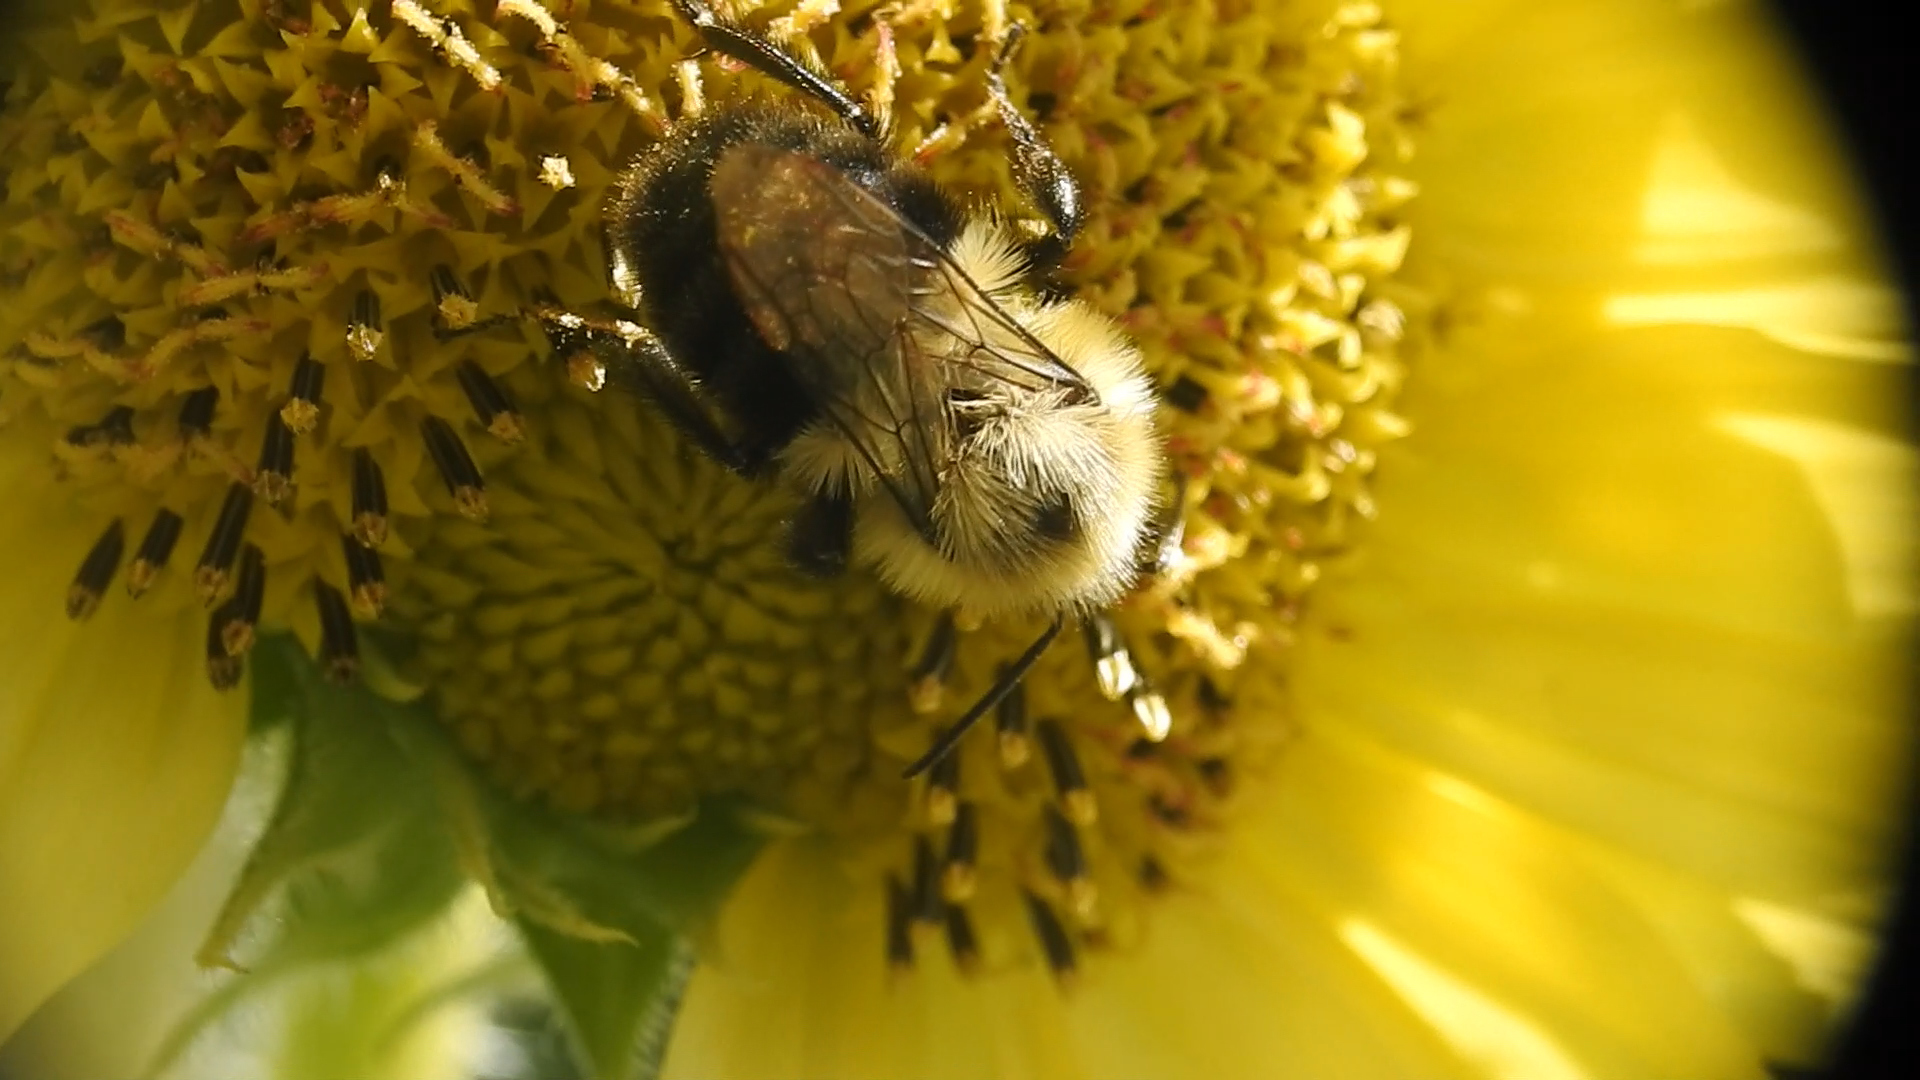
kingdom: Animalia
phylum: Arthropoda
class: Insecta
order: Hymenoptera
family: Apidae
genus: Bombus
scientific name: Bombus impatiens
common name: Common eastern bumble bee
